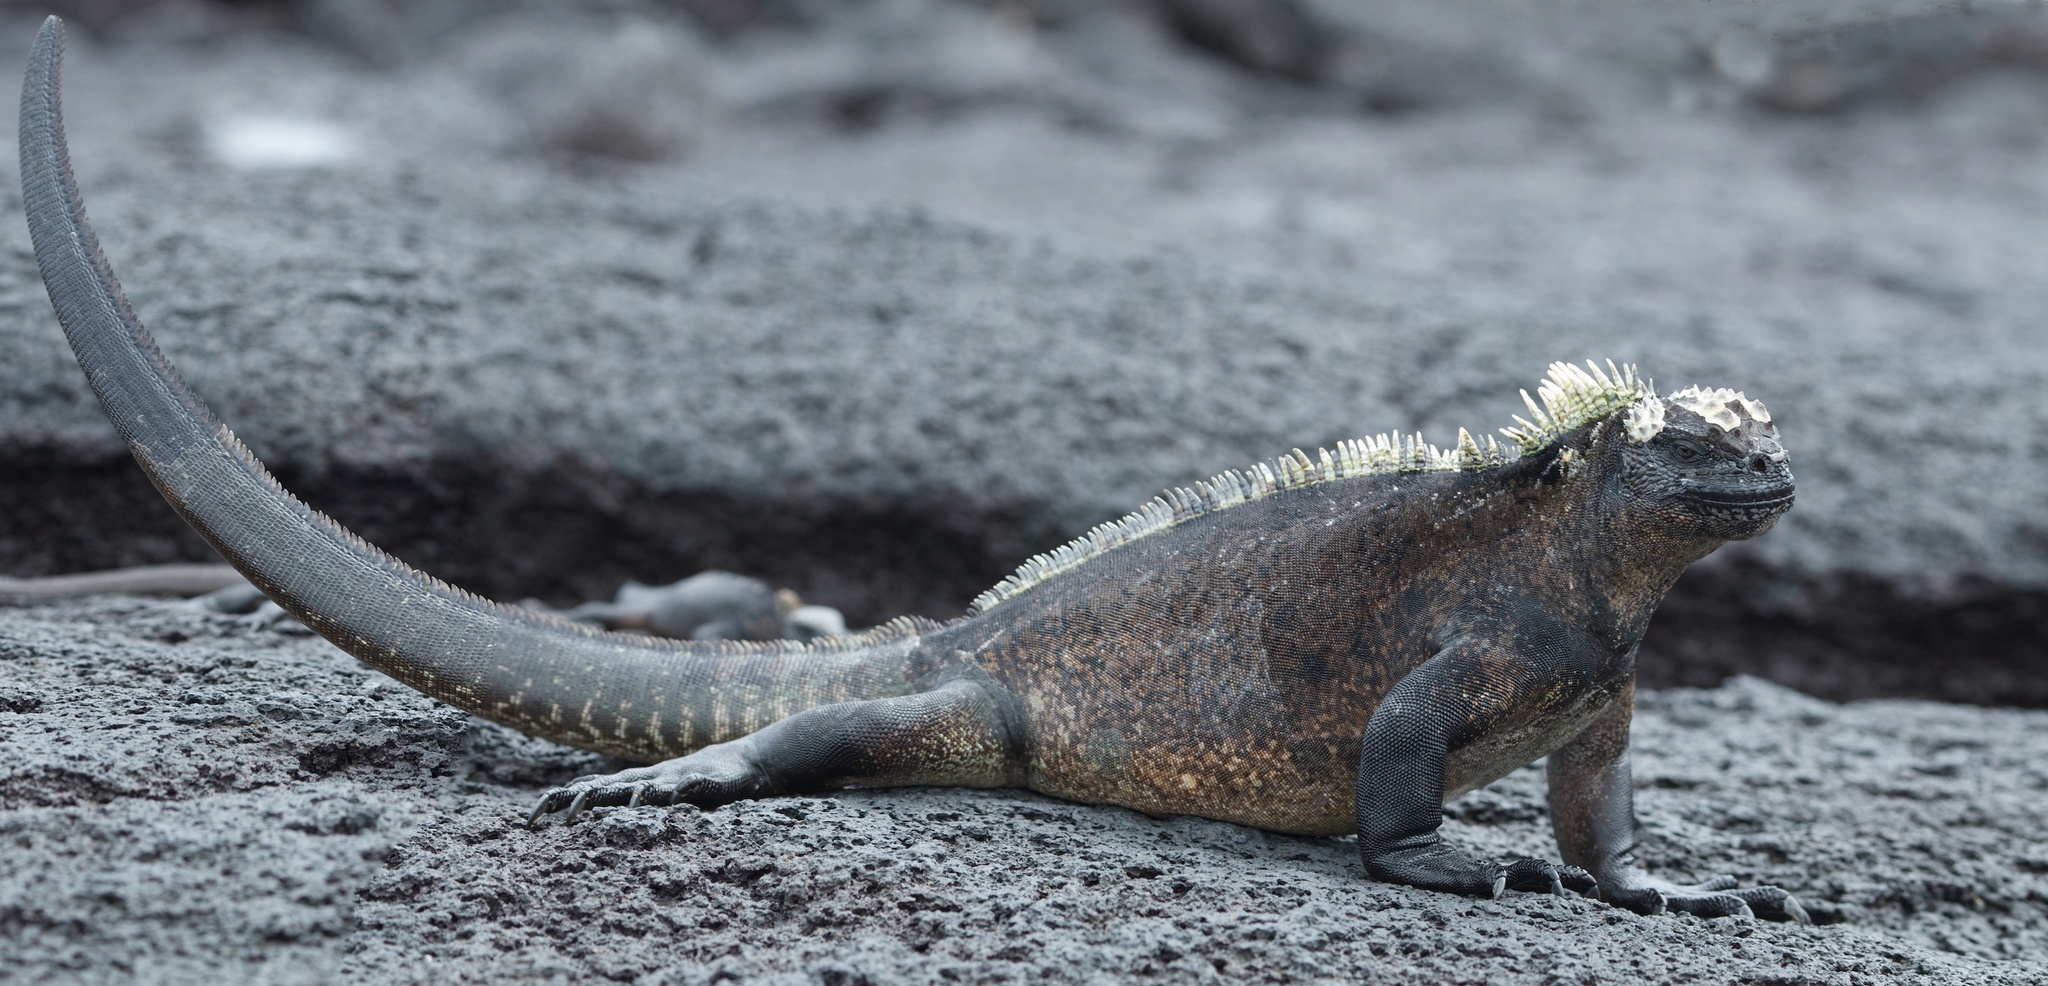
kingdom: Animalia
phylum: Chordata
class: Squamata
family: Iguanidae
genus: Amblyrhynchus
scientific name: Amblyrhynchus cristatus
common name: Marine iguana
